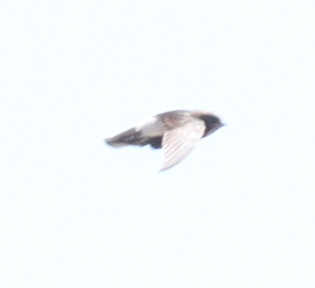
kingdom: Animalia
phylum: Chordata
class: Aves
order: Apodiformes
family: Apodidae
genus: Apus
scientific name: Apus affinis
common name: Little swift
